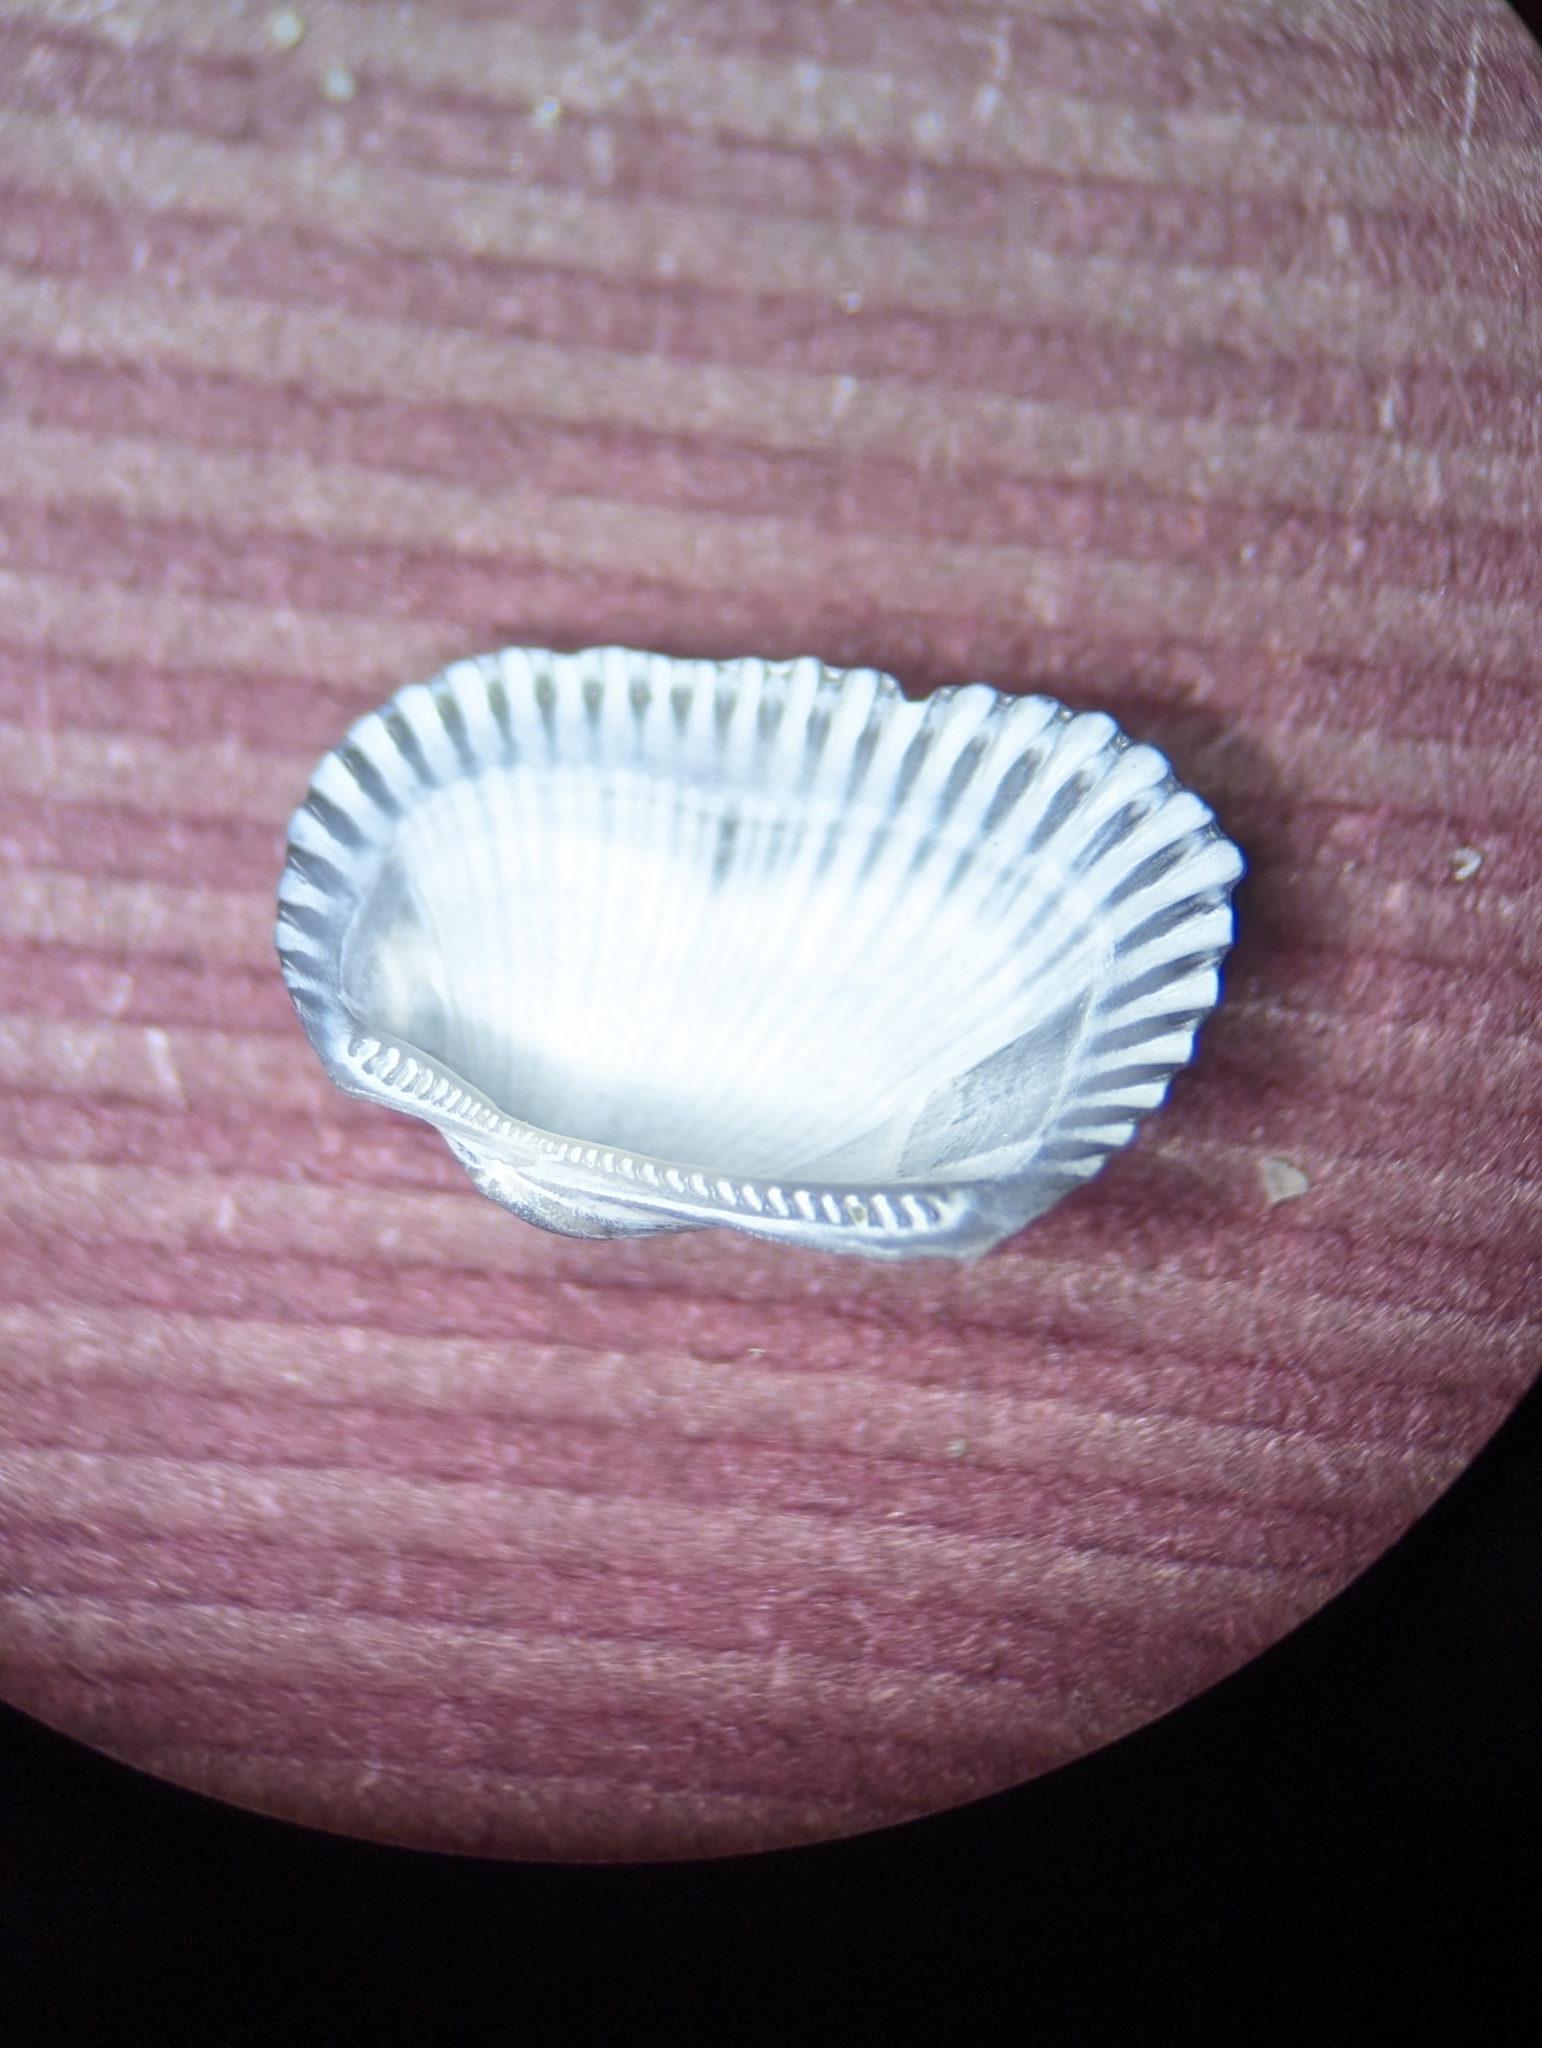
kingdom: Animalia
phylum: Mollusca
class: Bivalvia
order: Arcida
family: Arcidae
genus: Anadara
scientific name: Anadara transversa
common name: Transverse ark
